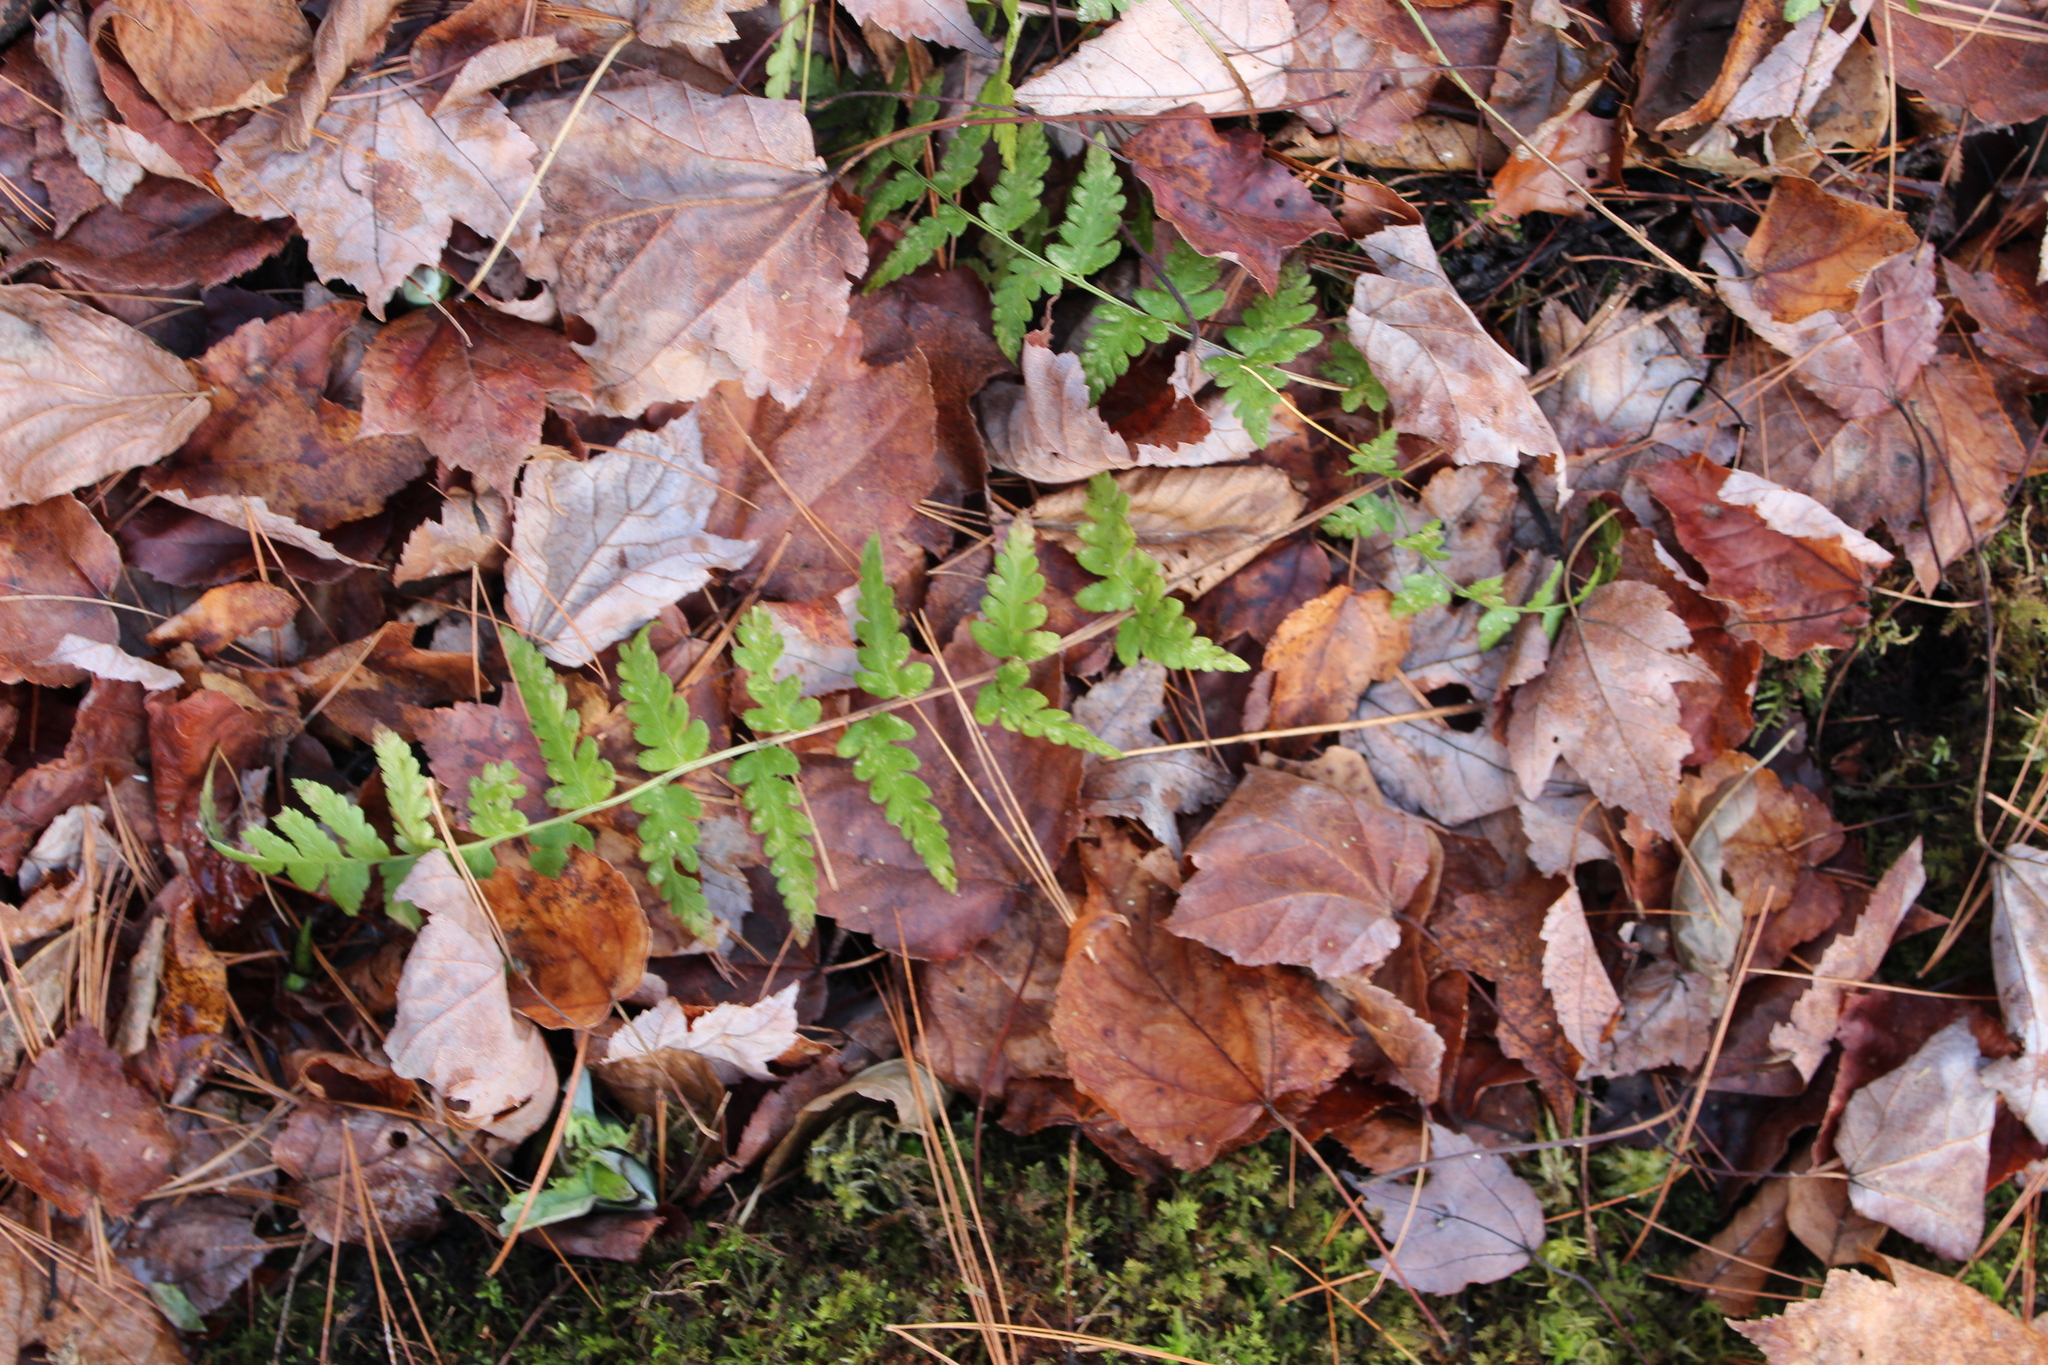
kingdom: Plantae
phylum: Tracheophyta
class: Polypodiopsida
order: Polypodiales
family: Dryopteridaceae
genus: Dryopteris
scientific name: Dryopteris cristata
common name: Crested wood fern
